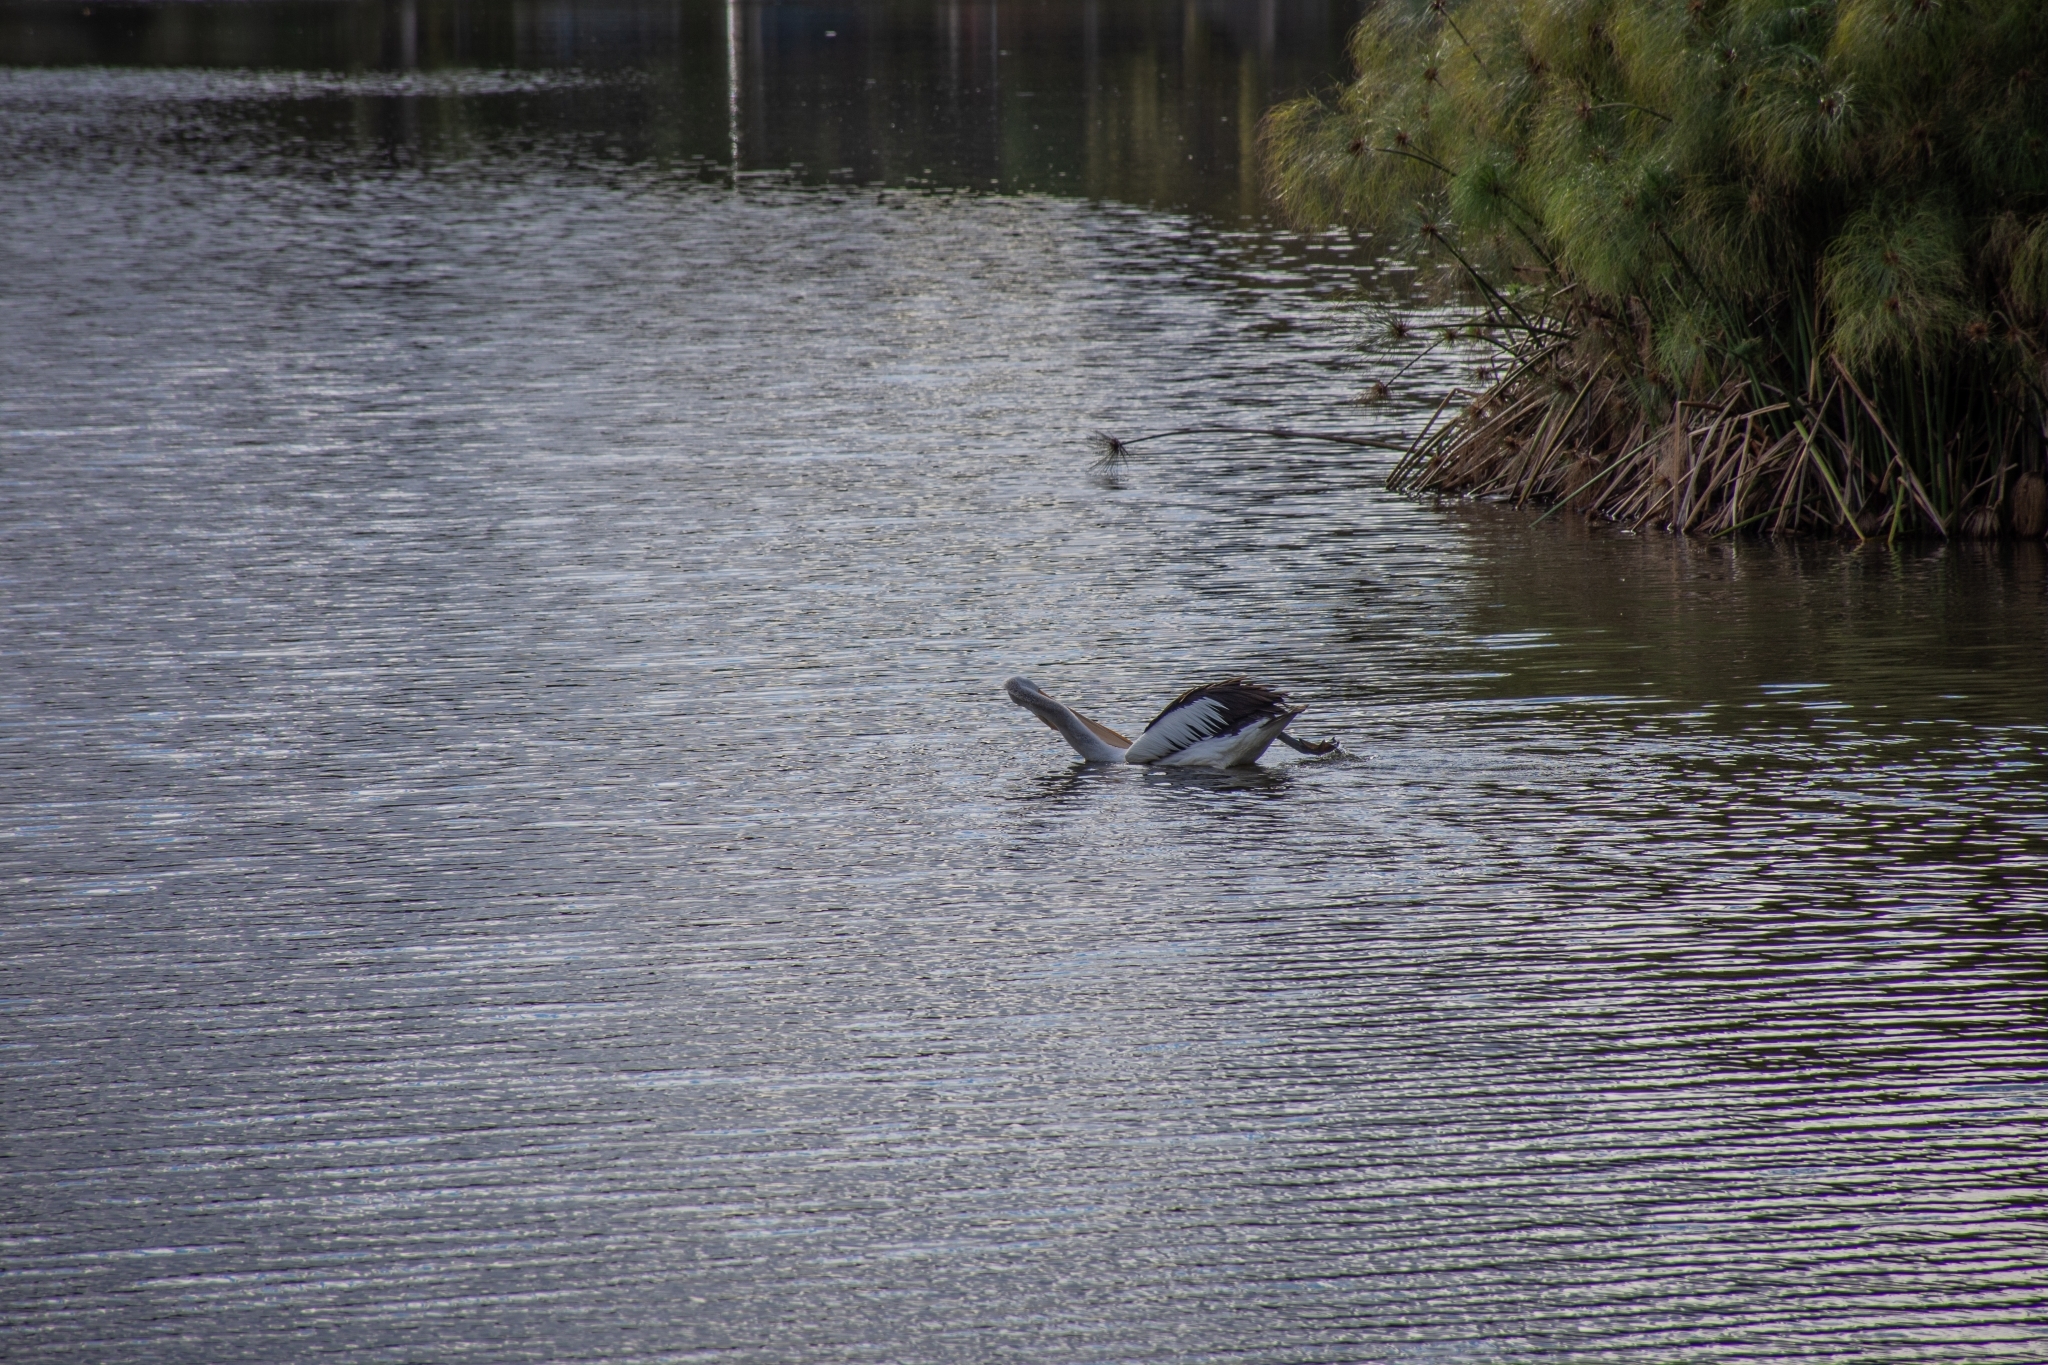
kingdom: Animalia
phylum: Chordata
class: Aves
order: Pelecaniformes
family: Pelecanidae
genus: Pelecanus
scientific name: Pelecanus conspicillatus
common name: Australian pelican
